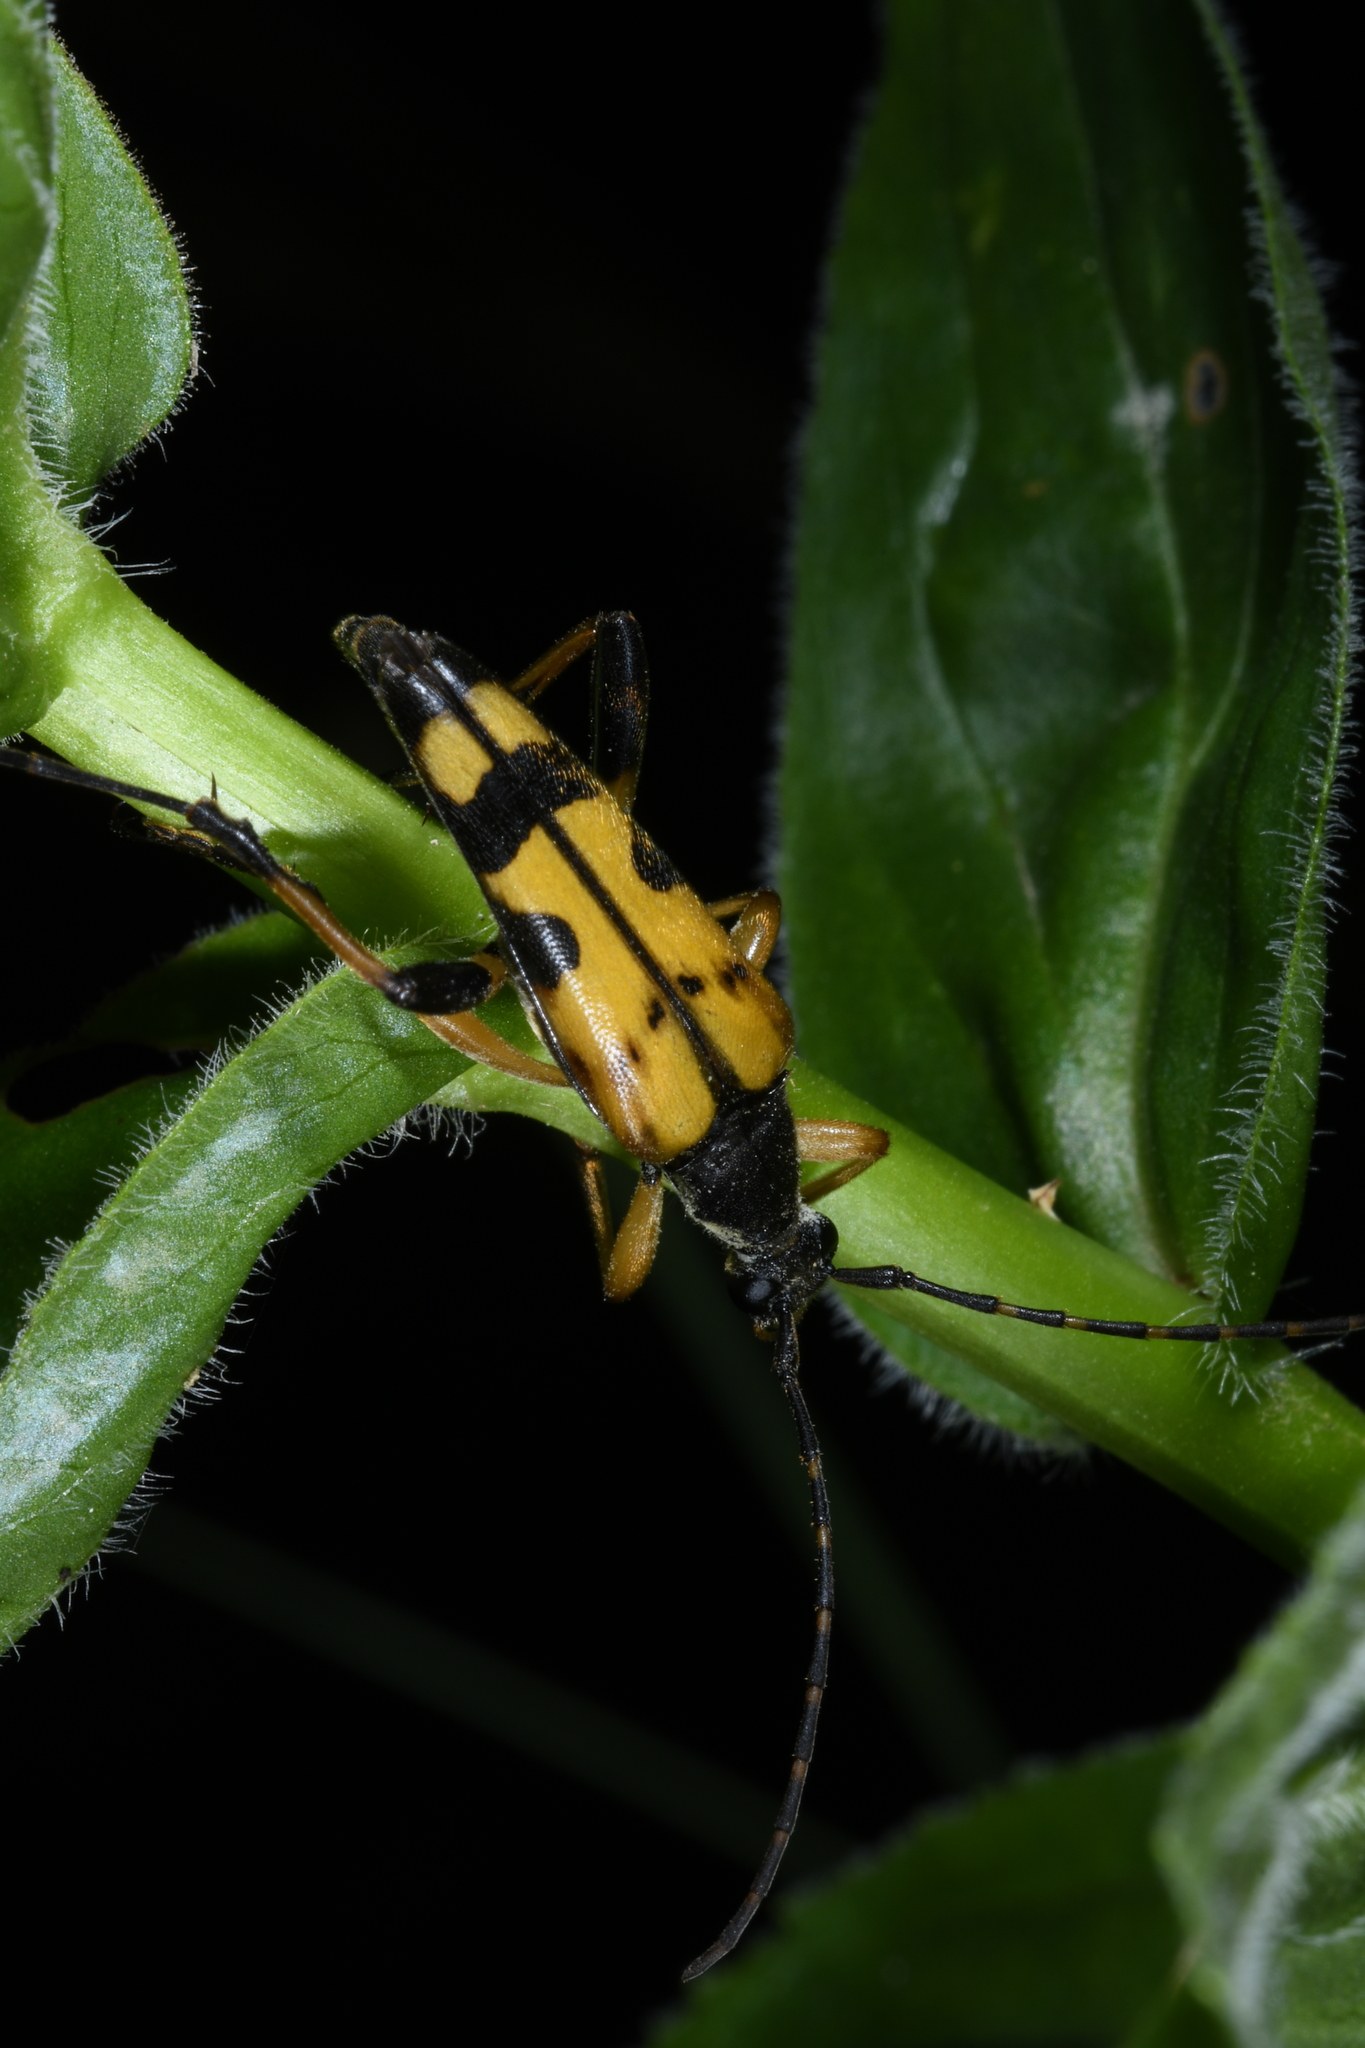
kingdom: Animalia
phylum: Arthropoda
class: Insecta
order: Coleoptera
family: Cerambycidae
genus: Rutpela
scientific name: Rutpela maculata
